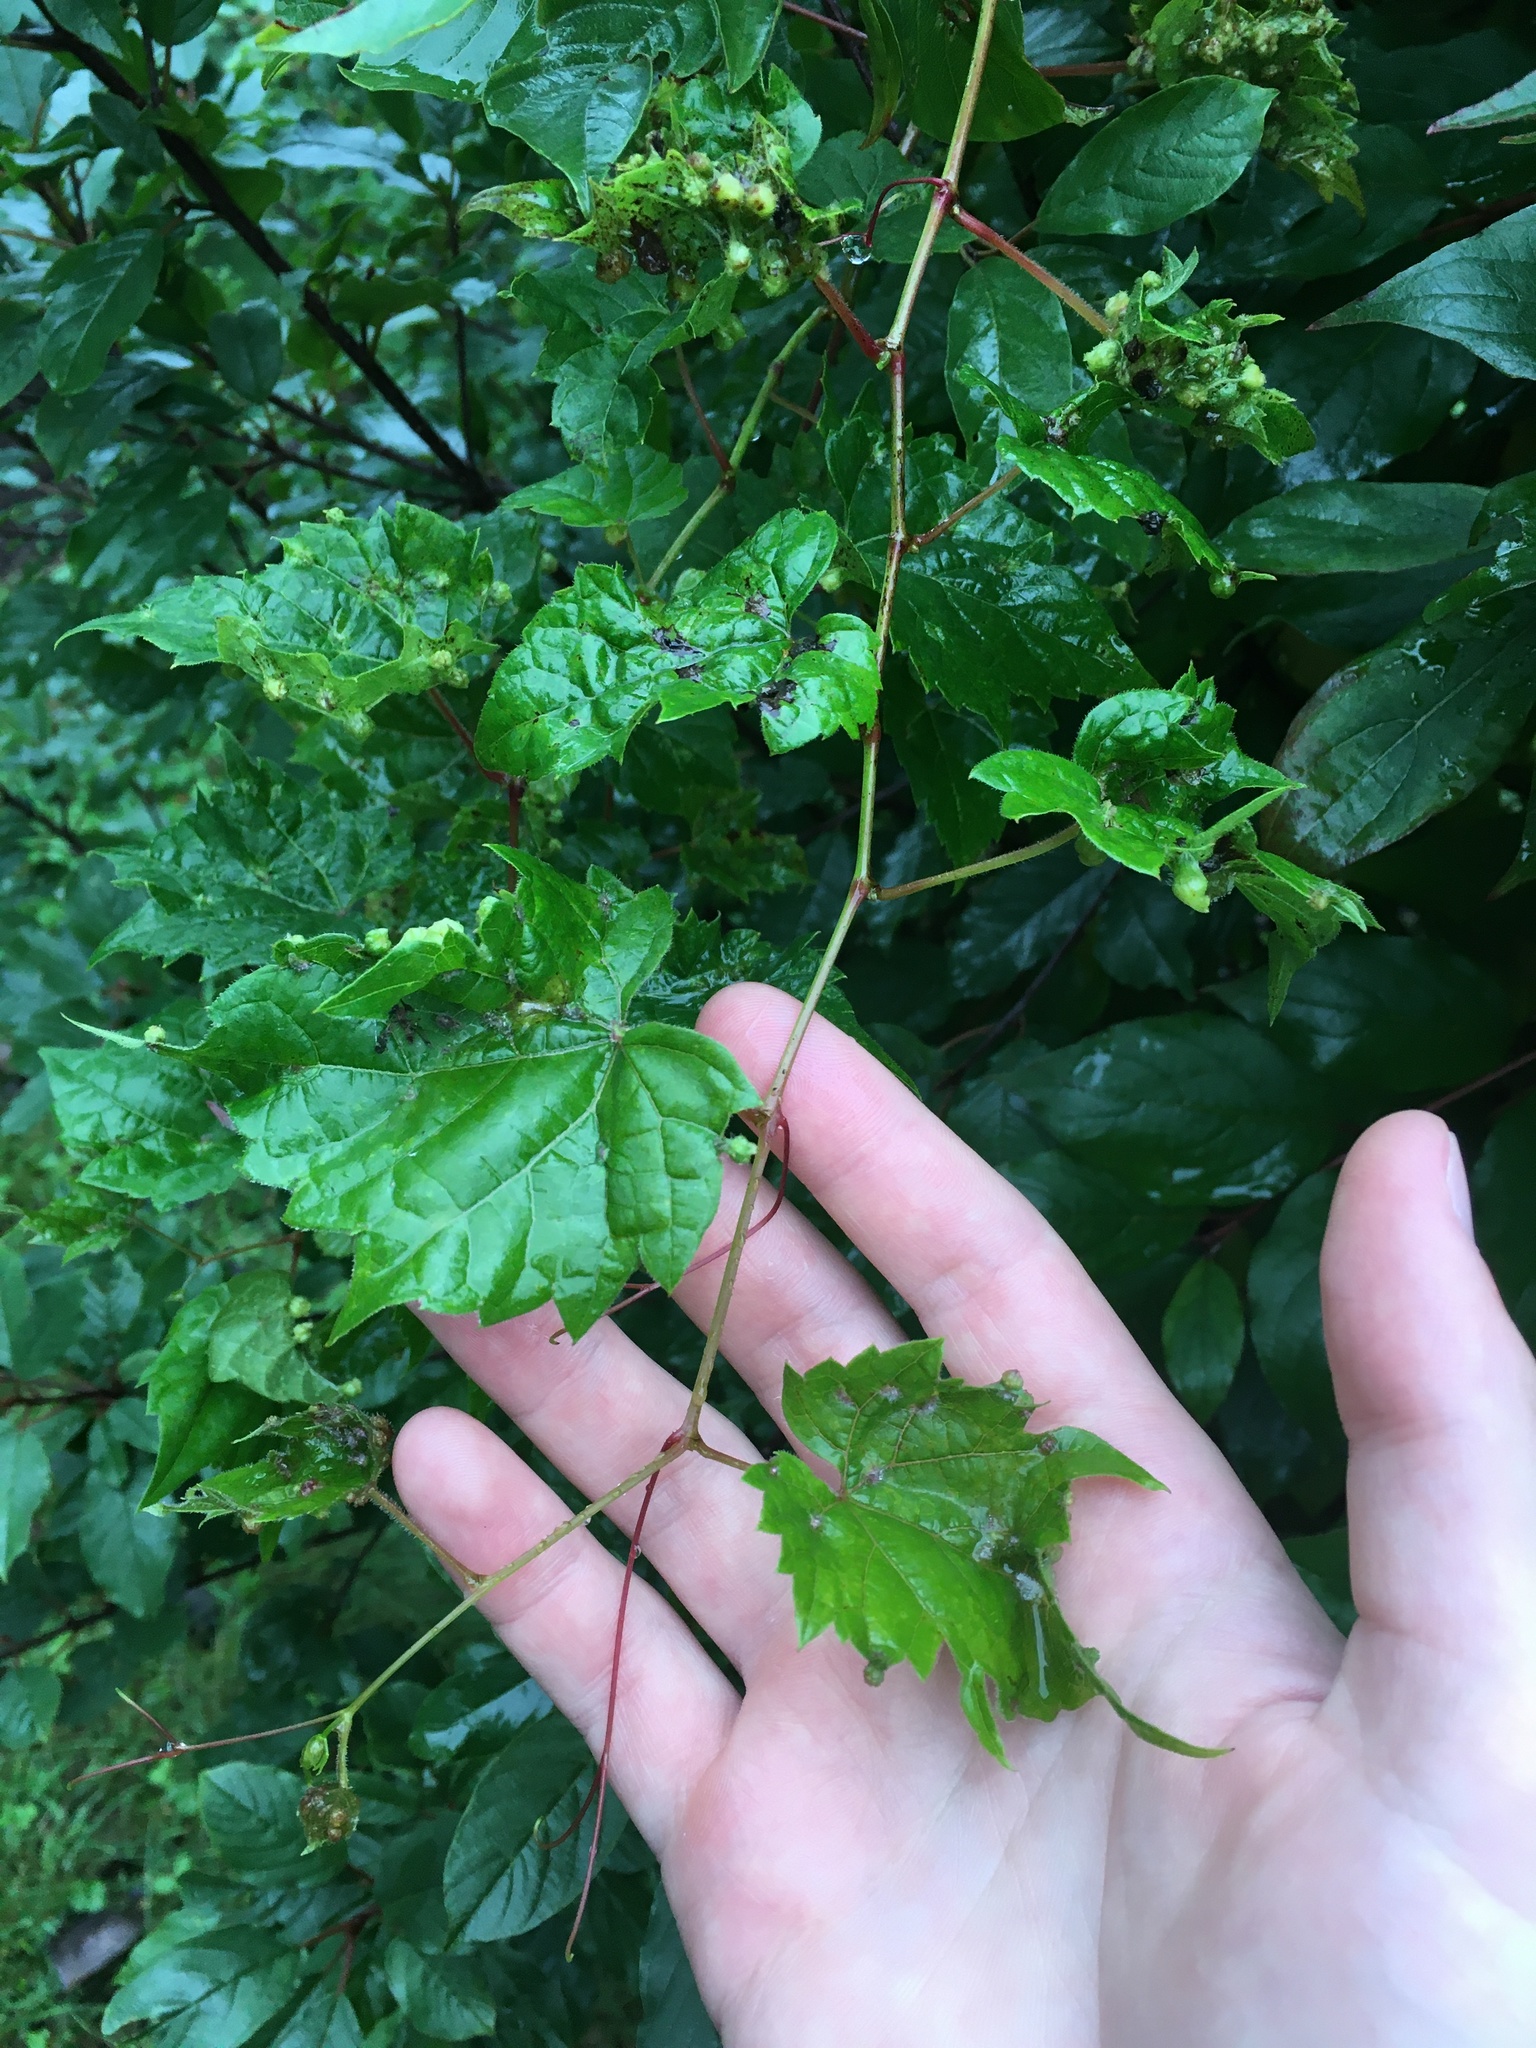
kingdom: Animalia
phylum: Arthropoda
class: Insecta
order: Hemiptera
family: Phylloxeridae
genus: Daktulosphaira
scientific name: Daktulosphaira vitifoliae
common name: Grape phylloxera
